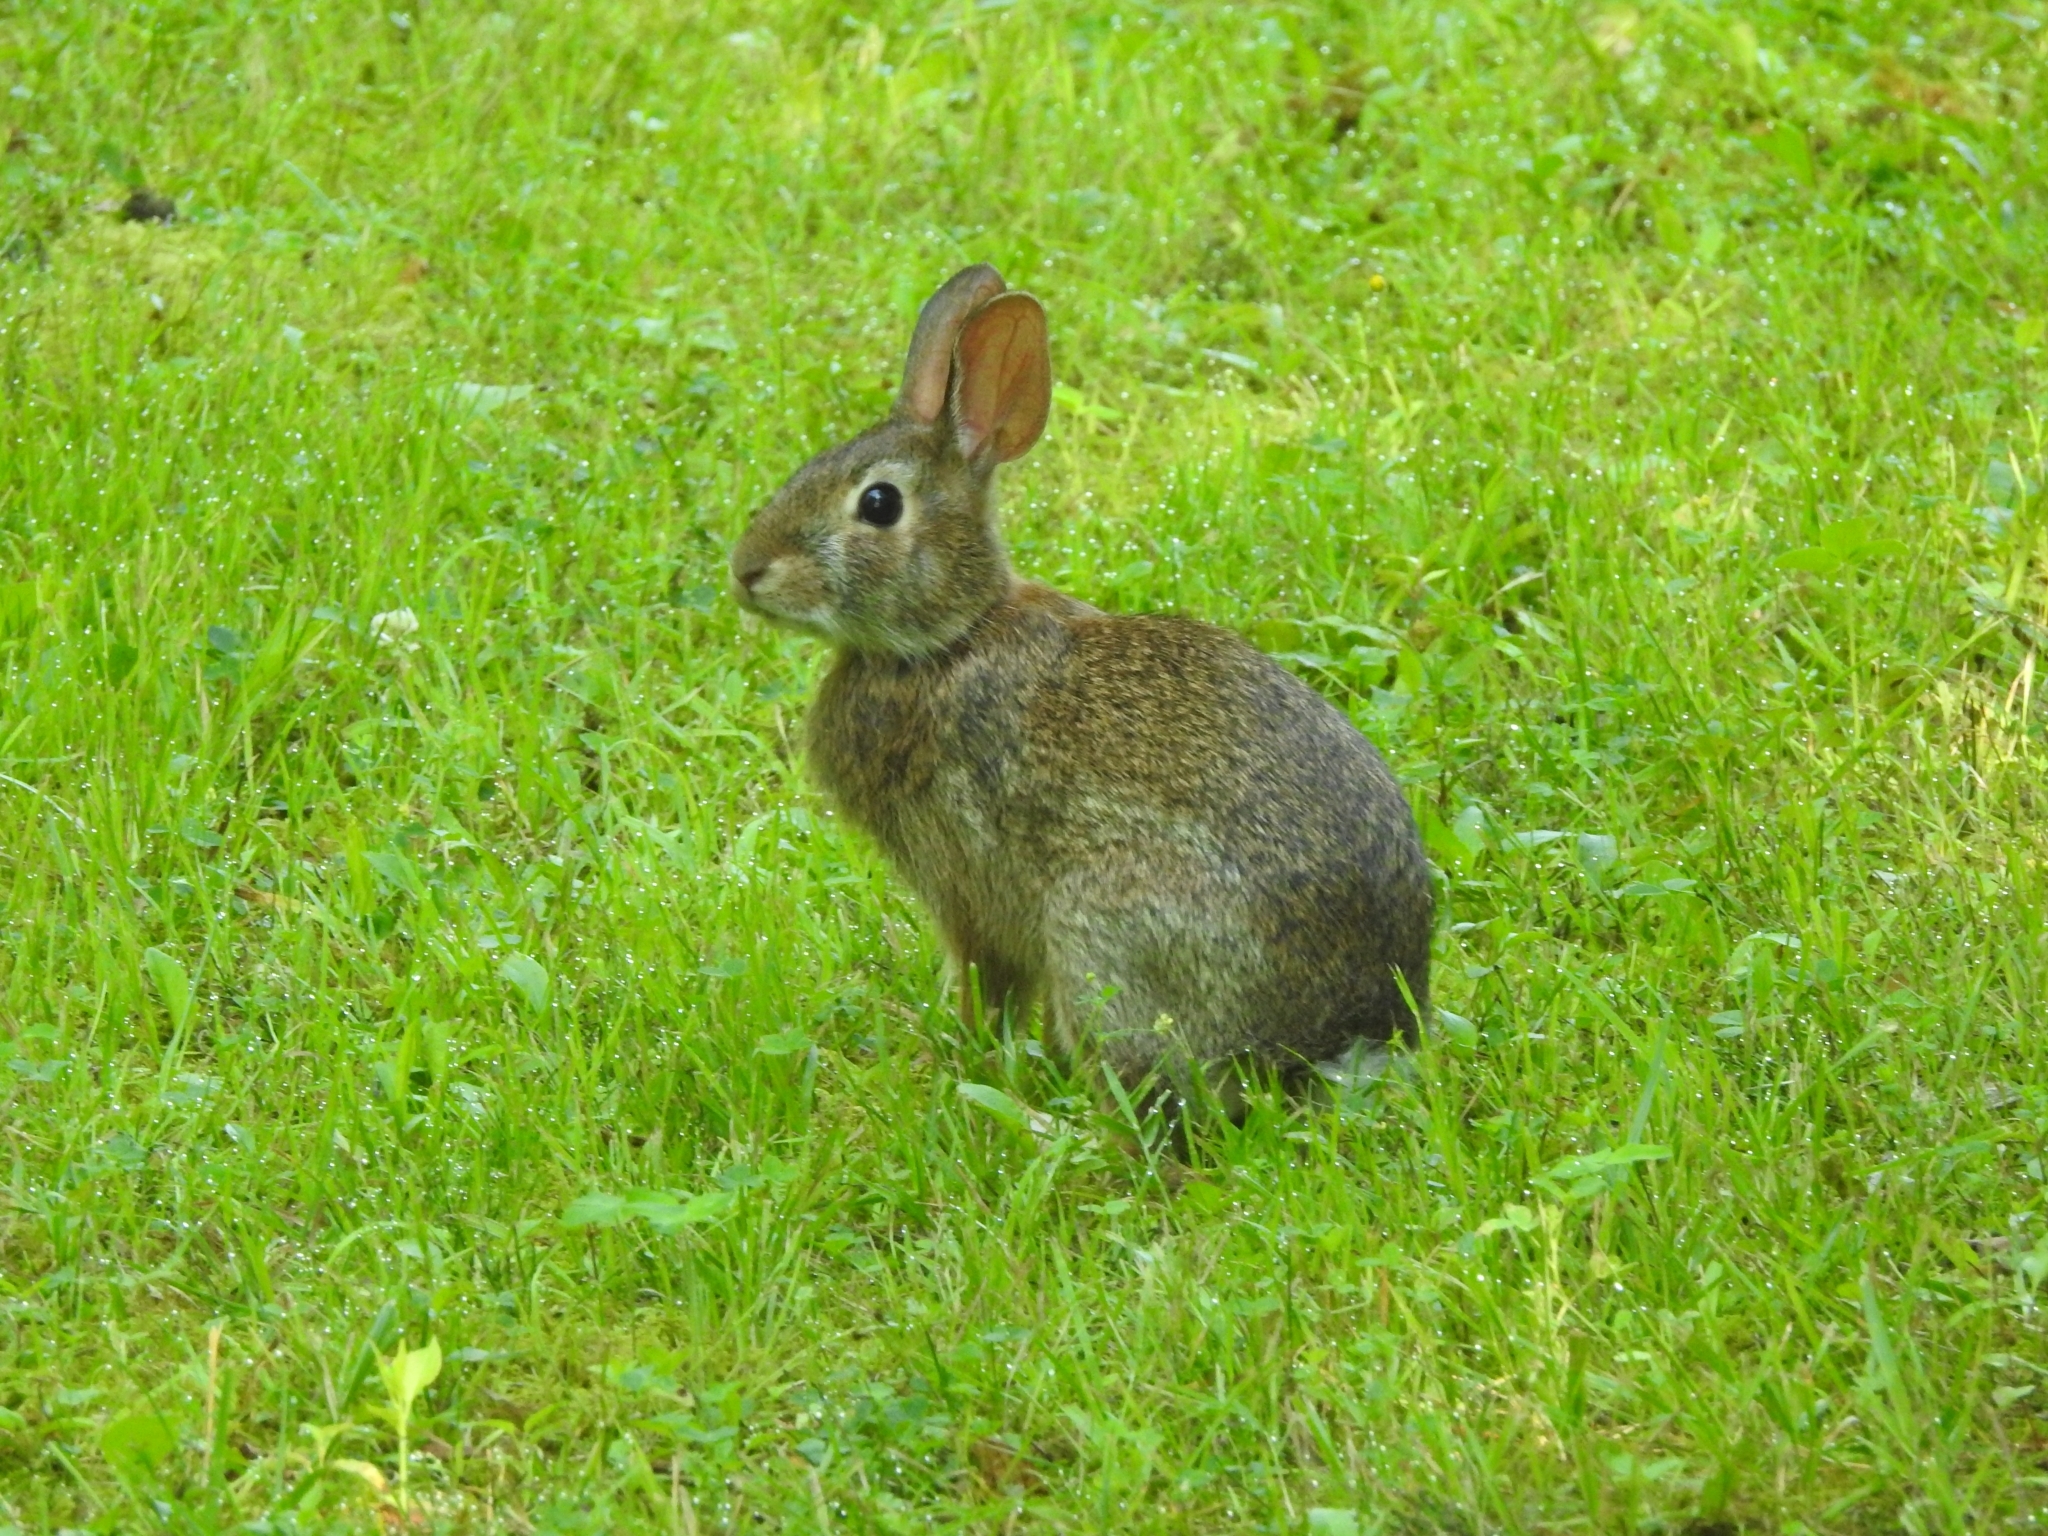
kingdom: Animalia
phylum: Chordata
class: Mammalia
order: Lagomorpha
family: Leporidae
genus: Sylvilagus
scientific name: Sylvilagus floridanus
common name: Eastern cottontail
